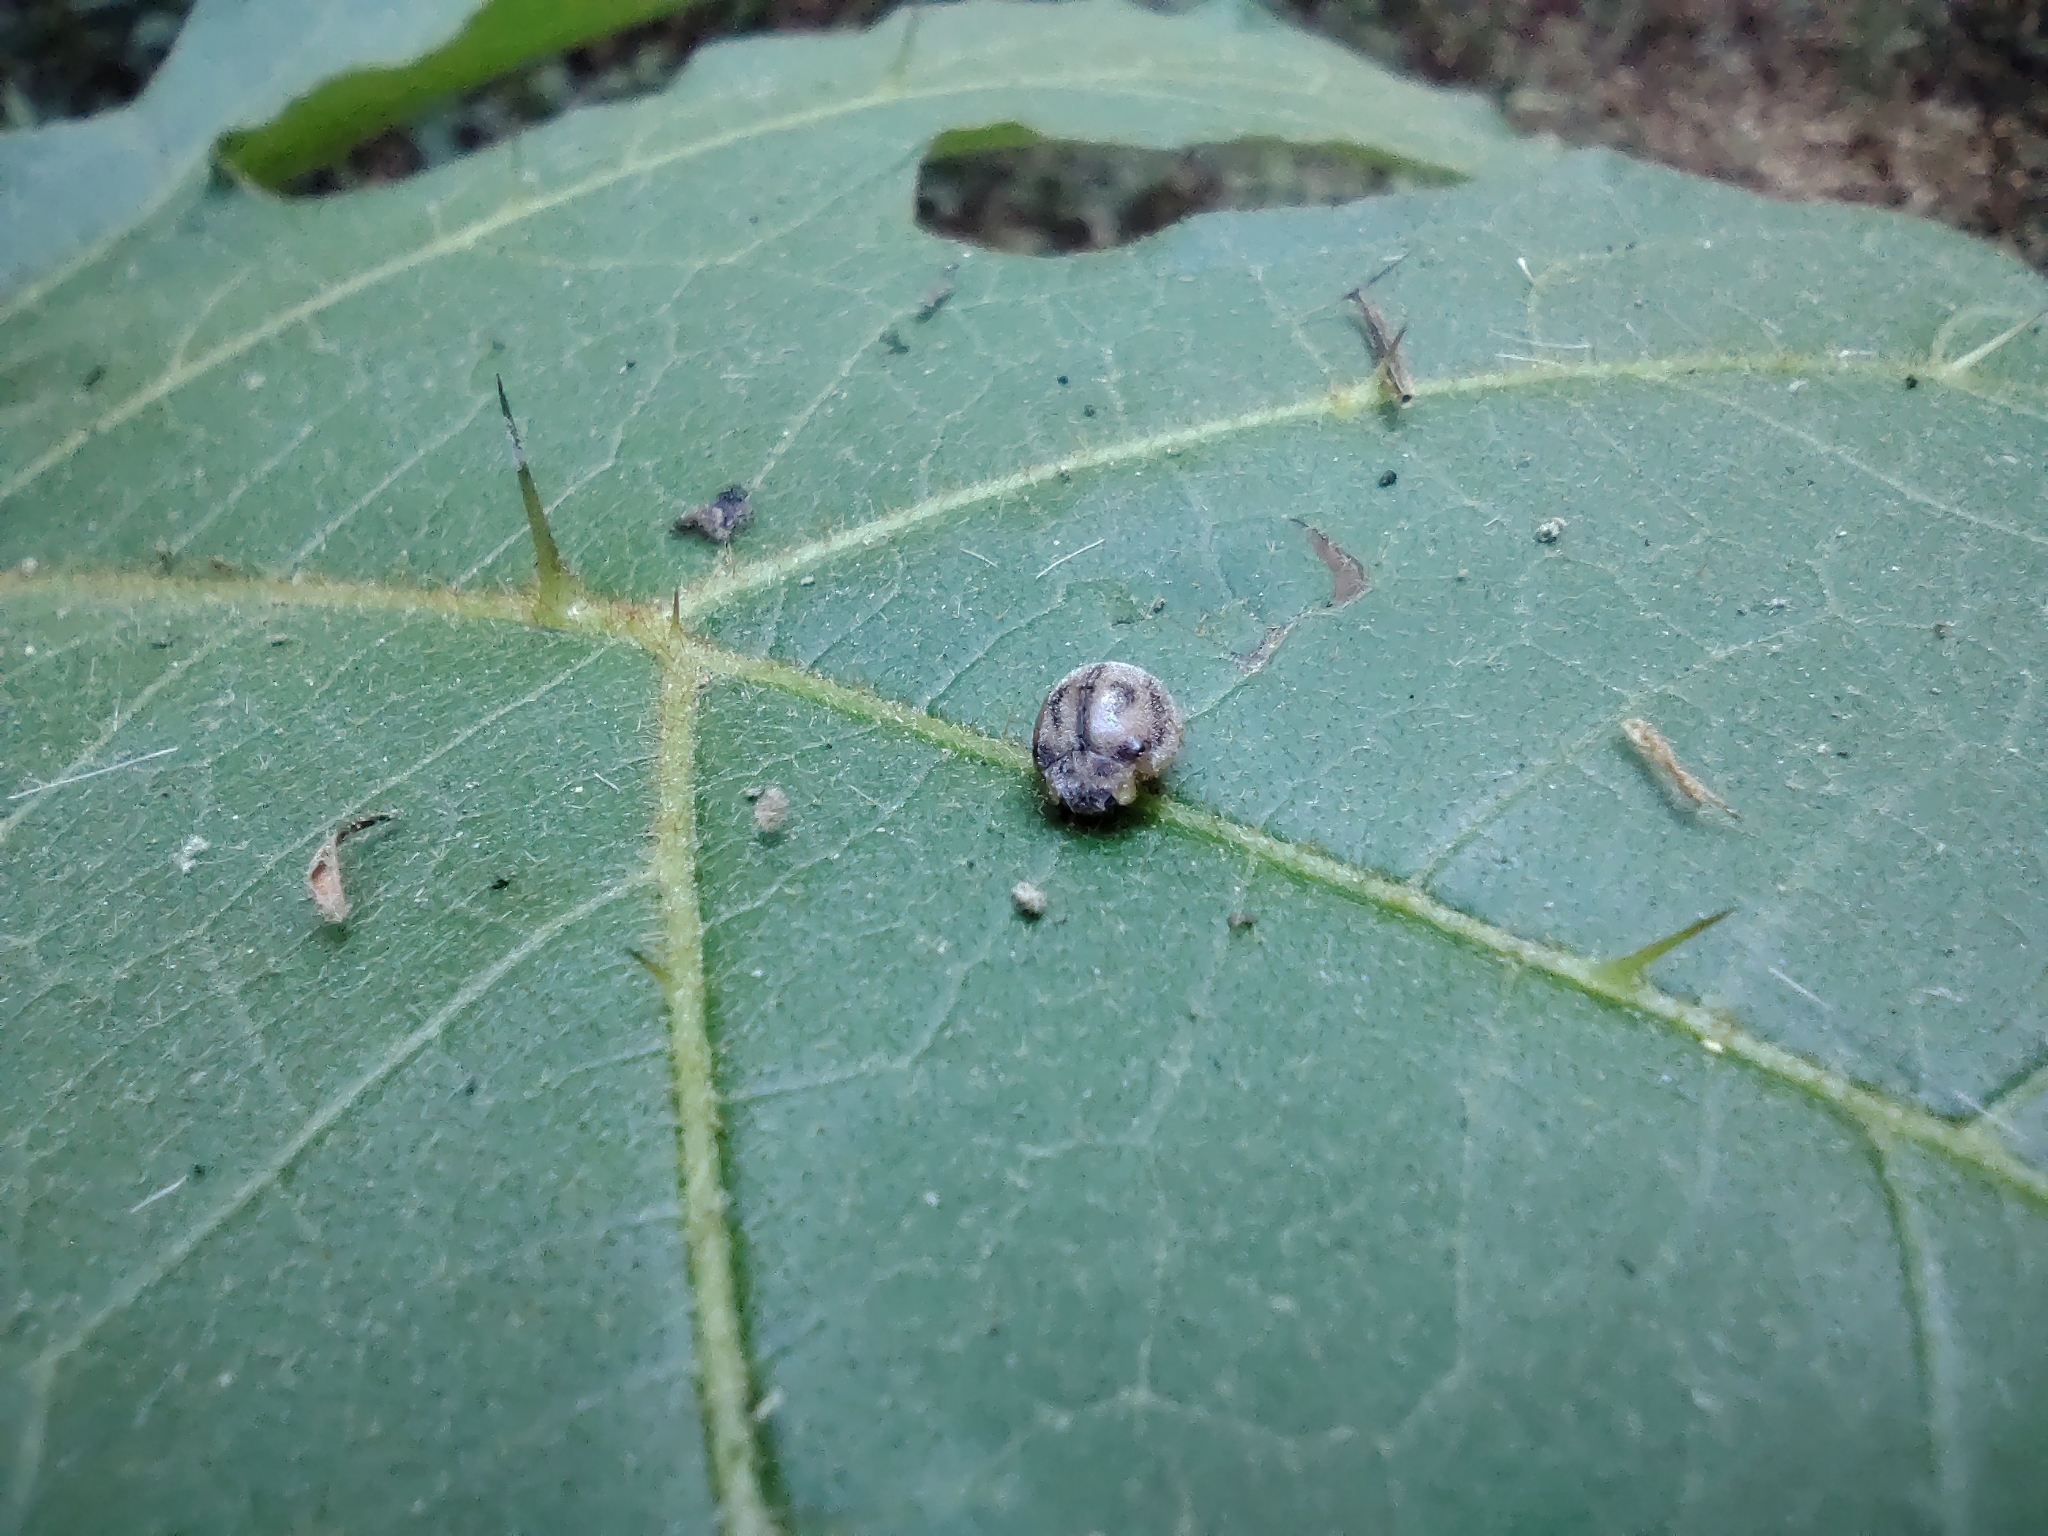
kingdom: Animalia
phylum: Arthropoda
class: Insecta
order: Coleoptera
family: Coccinellidae
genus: Mada
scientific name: Mada inepta
